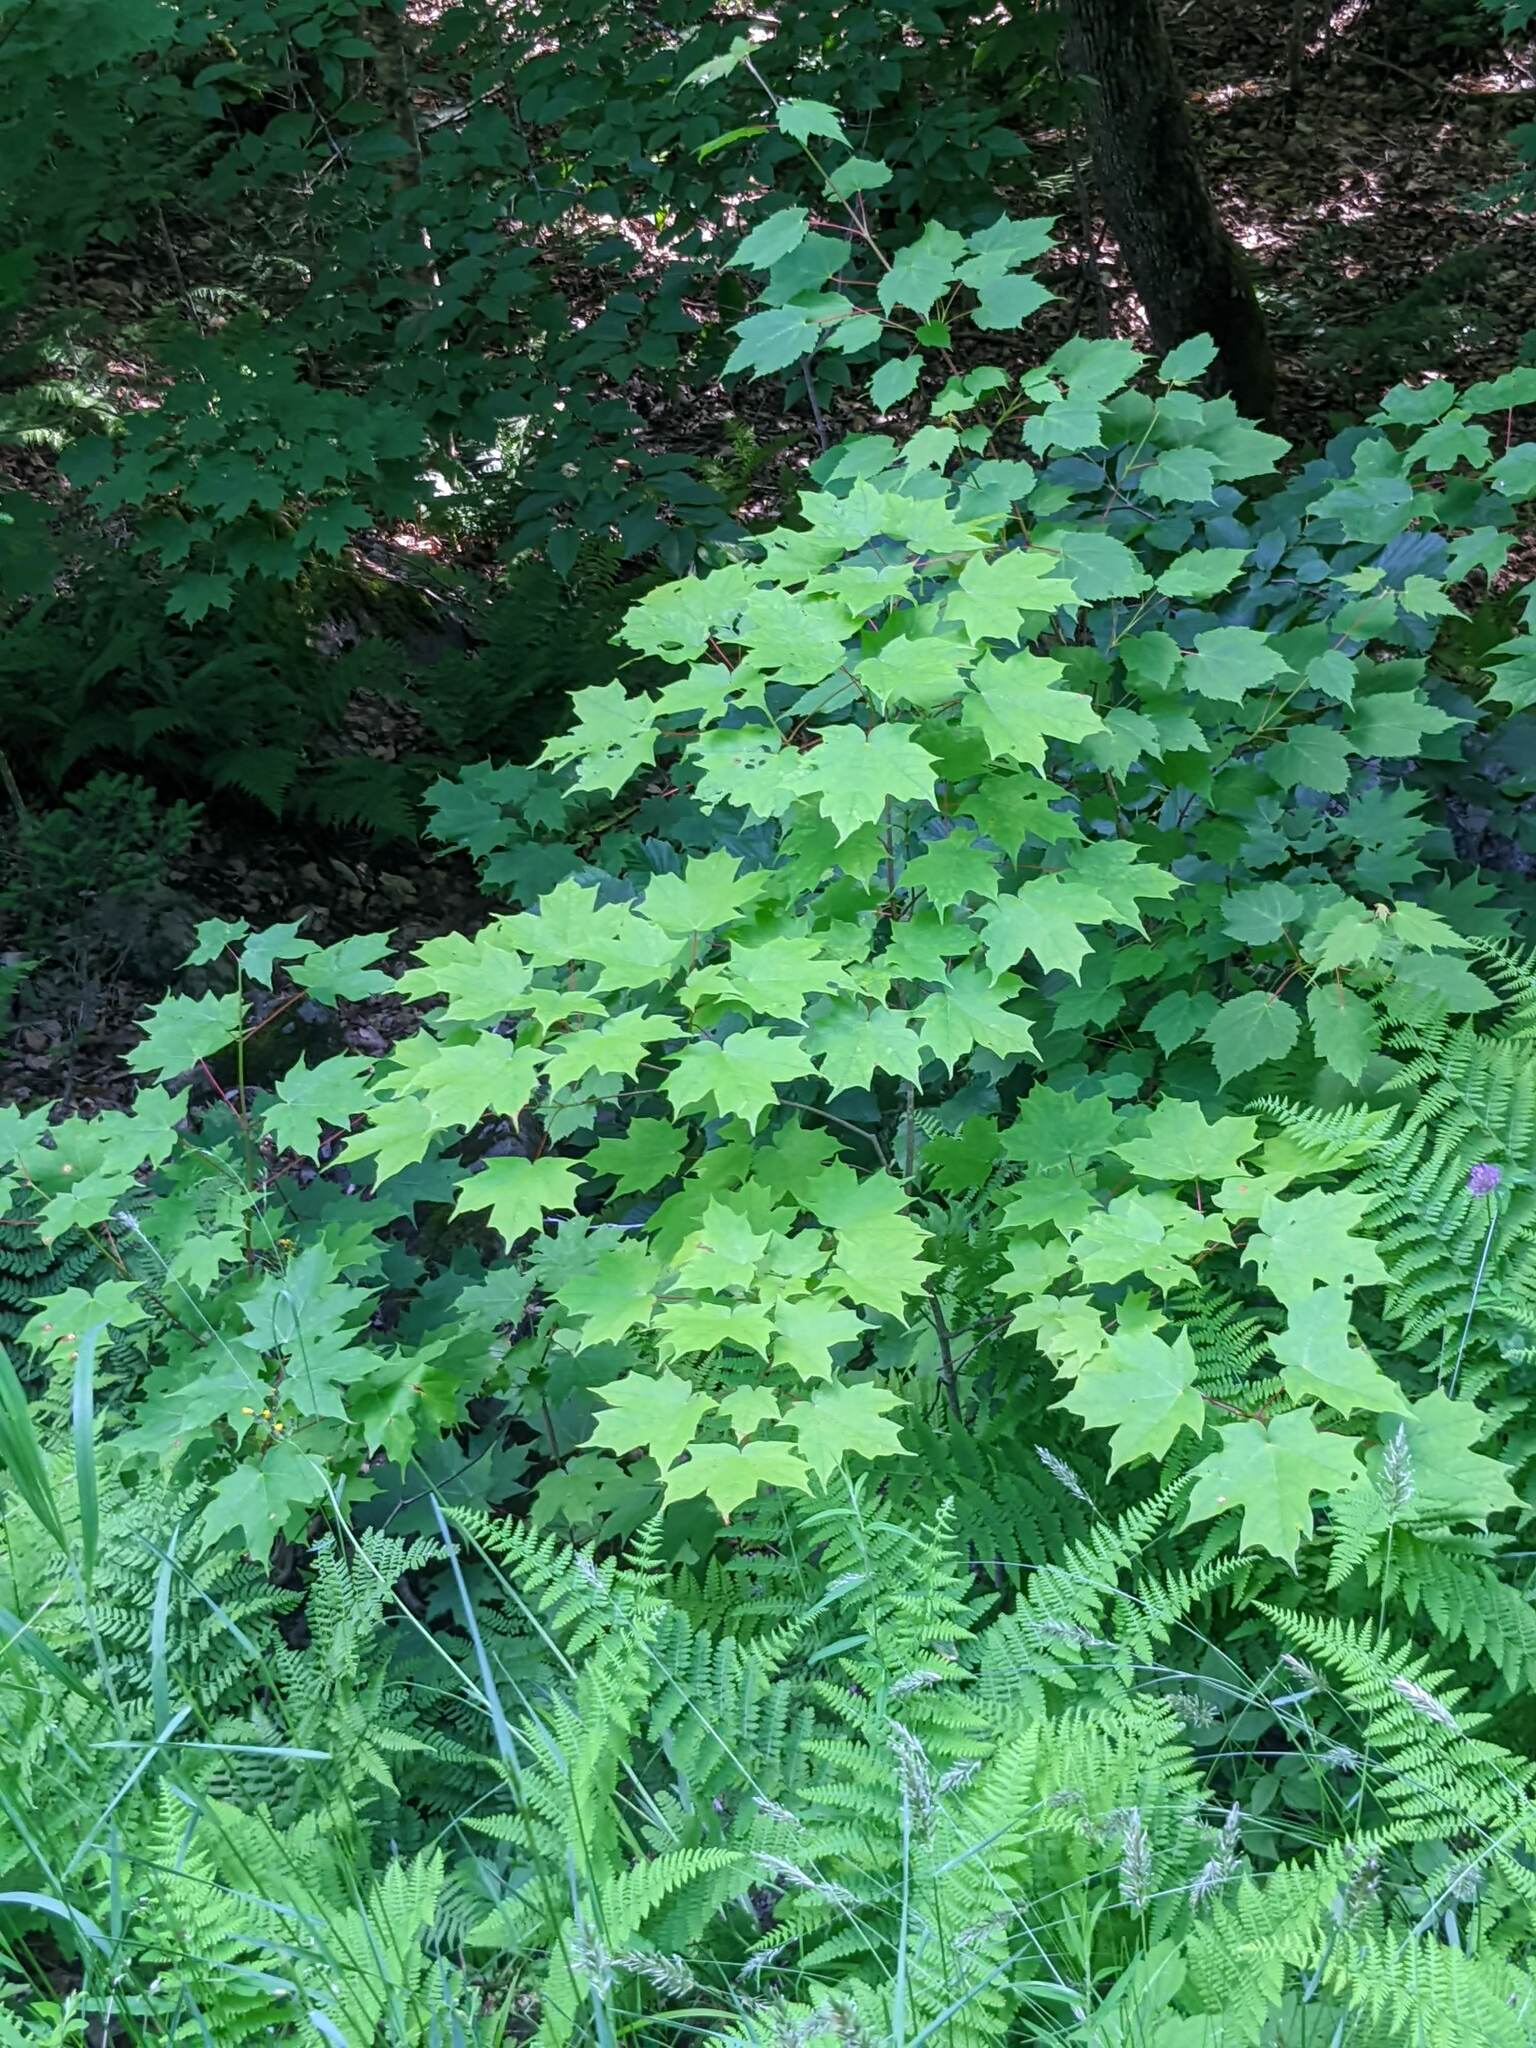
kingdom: Plantae
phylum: Tracheophyta
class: Magnoliopsida
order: Sapindales
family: Sapindaceae
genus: Acer
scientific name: Acer saccharum
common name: Sugar maple
